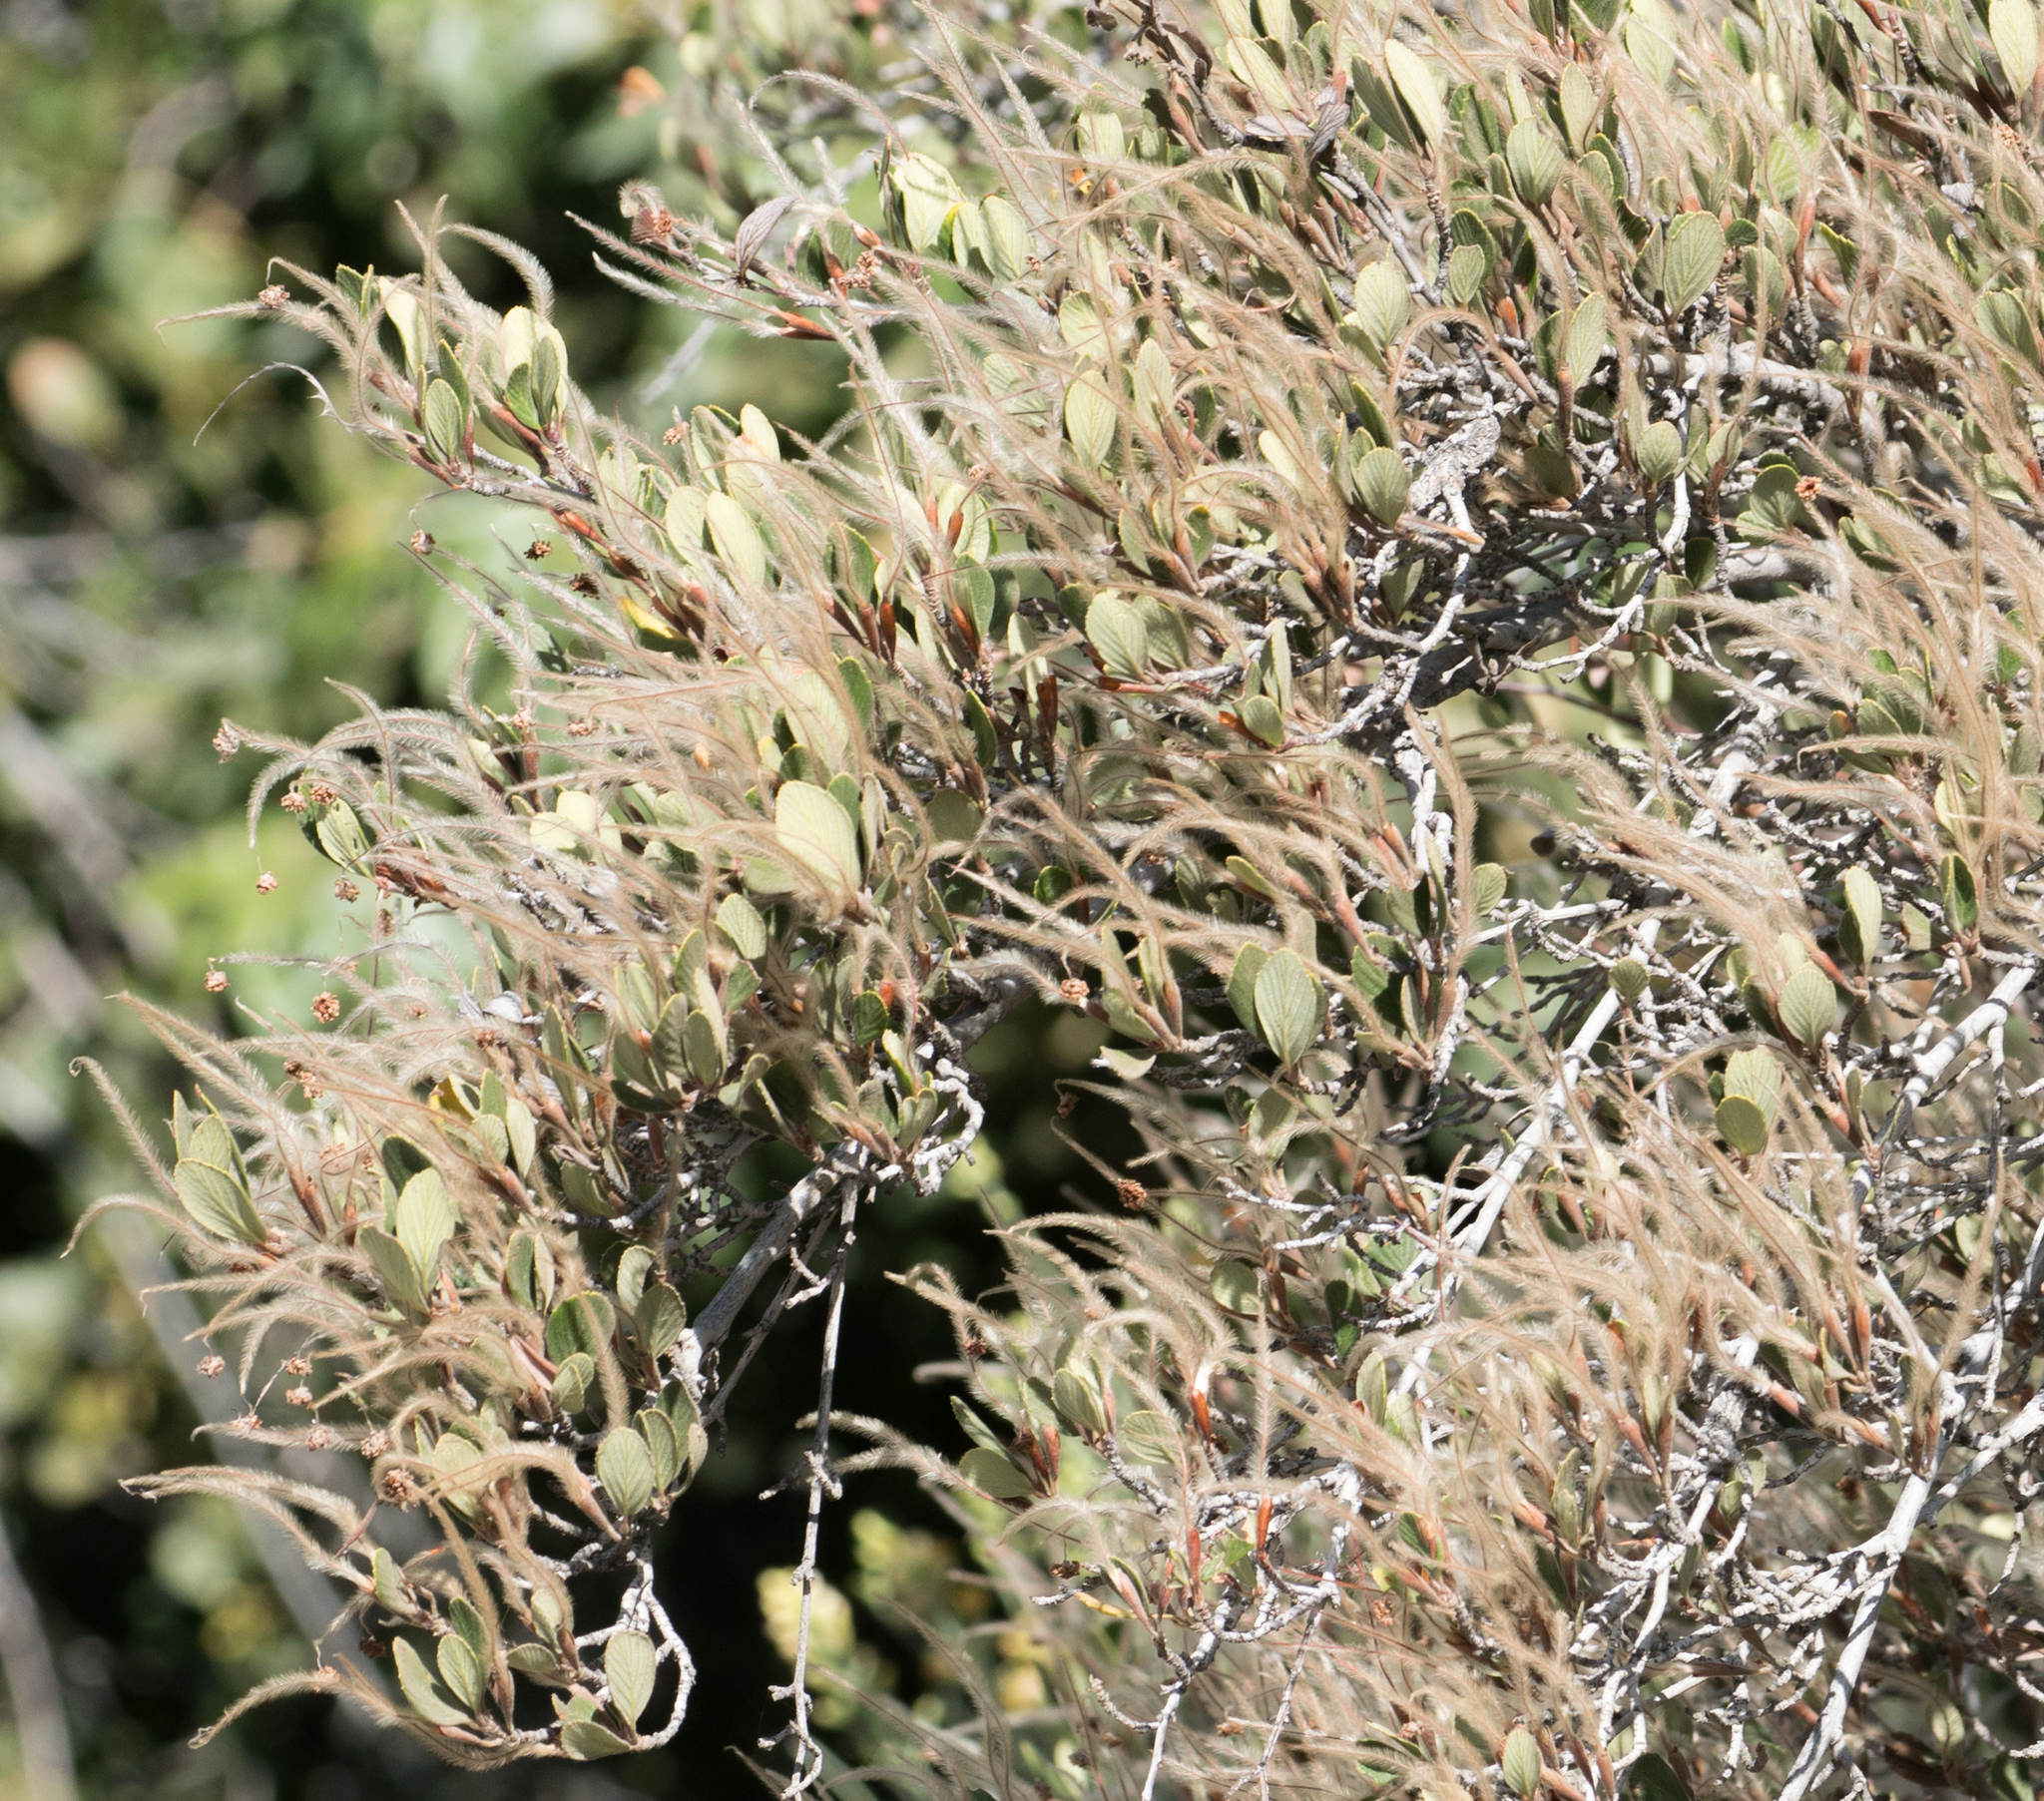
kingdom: Plantae
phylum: Tracheophyta
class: Magnoliopsida
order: Rosales
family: Rosaceae
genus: Cercocarpus
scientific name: Cercocarpus betuloides
